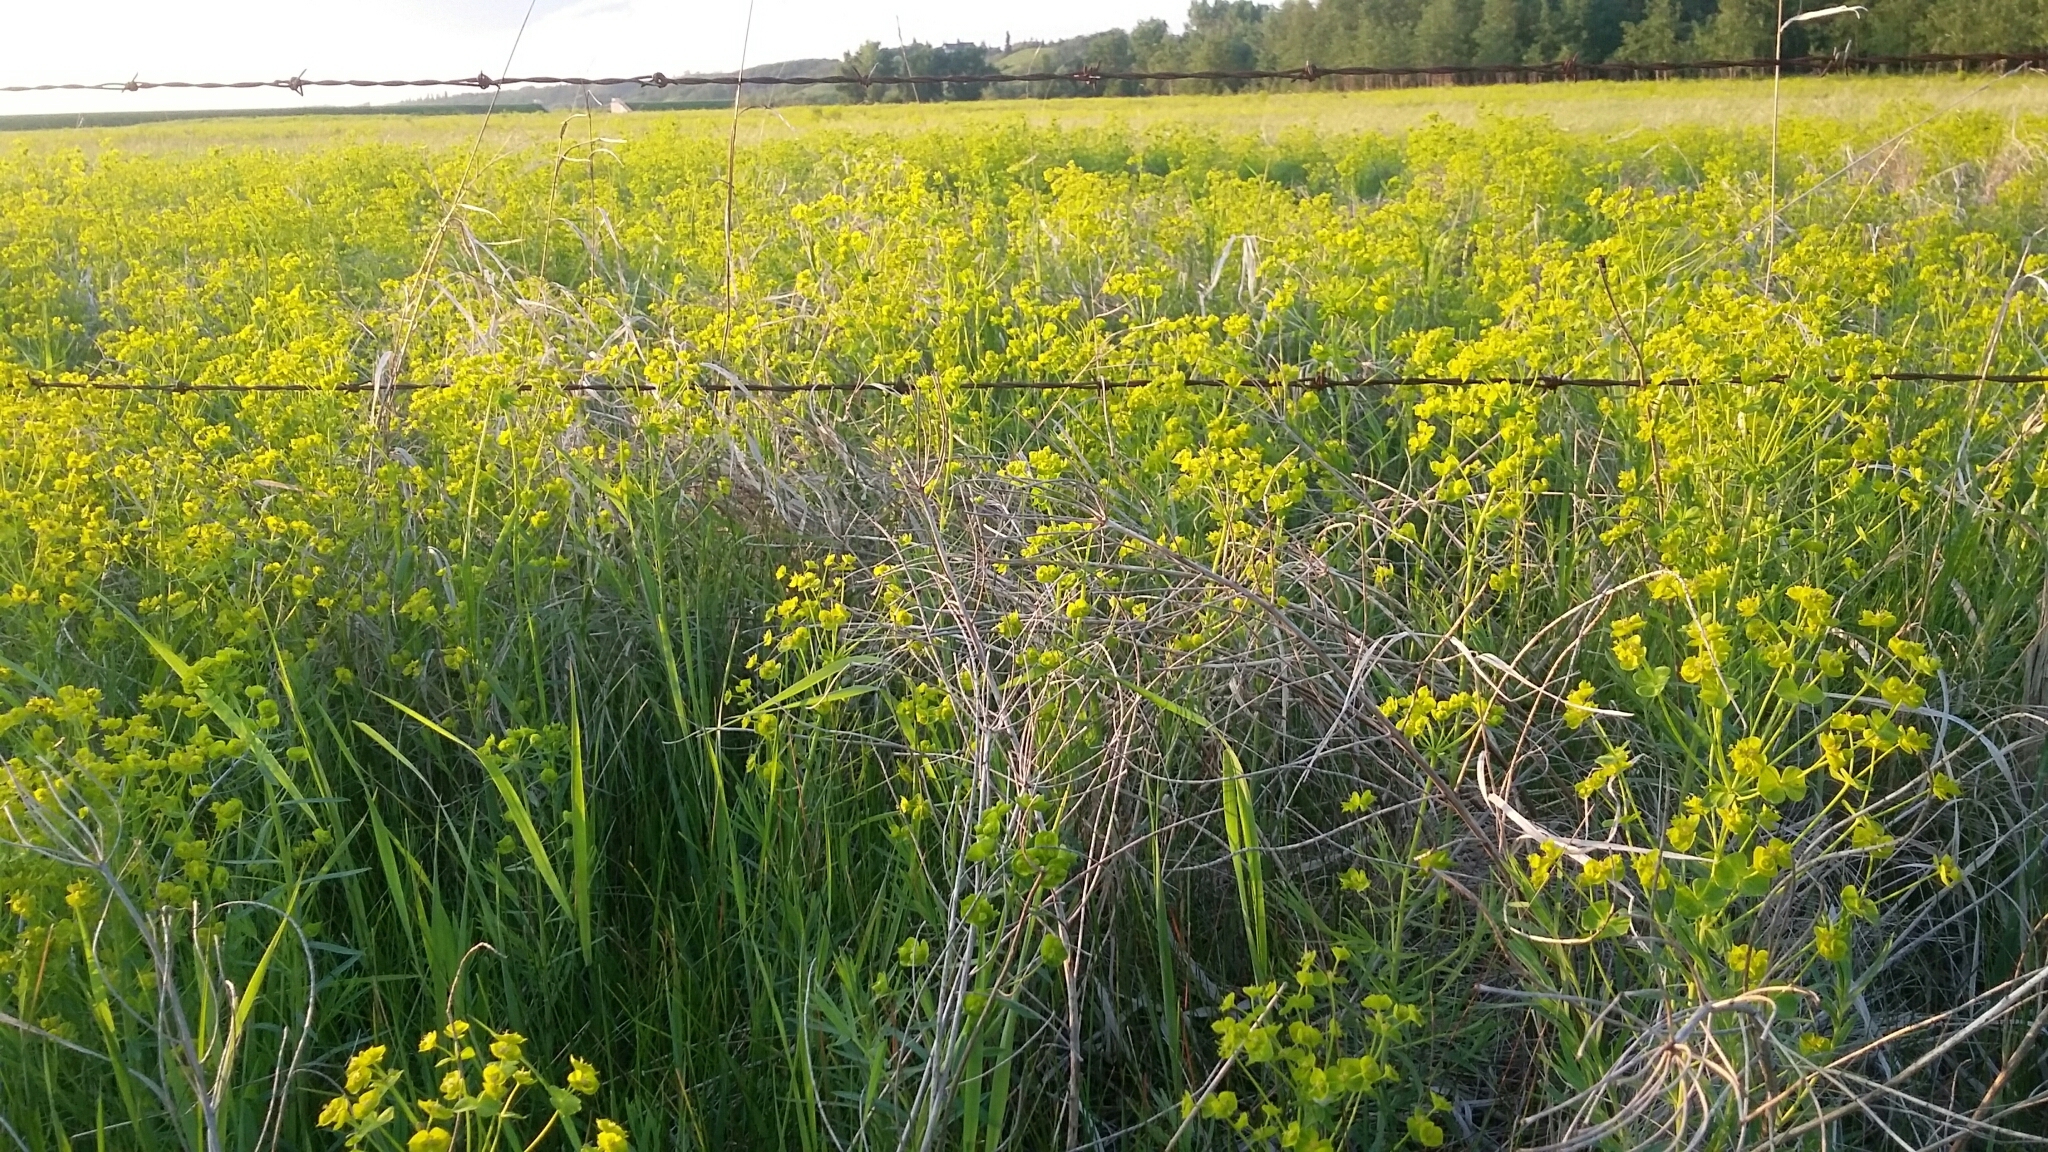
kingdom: Plantae
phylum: Tracheophyta
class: Magnoliopsida
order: Malpighiales
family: Euphorbiaceae
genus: Euphorbia
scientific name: Euphorbia virgata
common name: Leafy spurge
